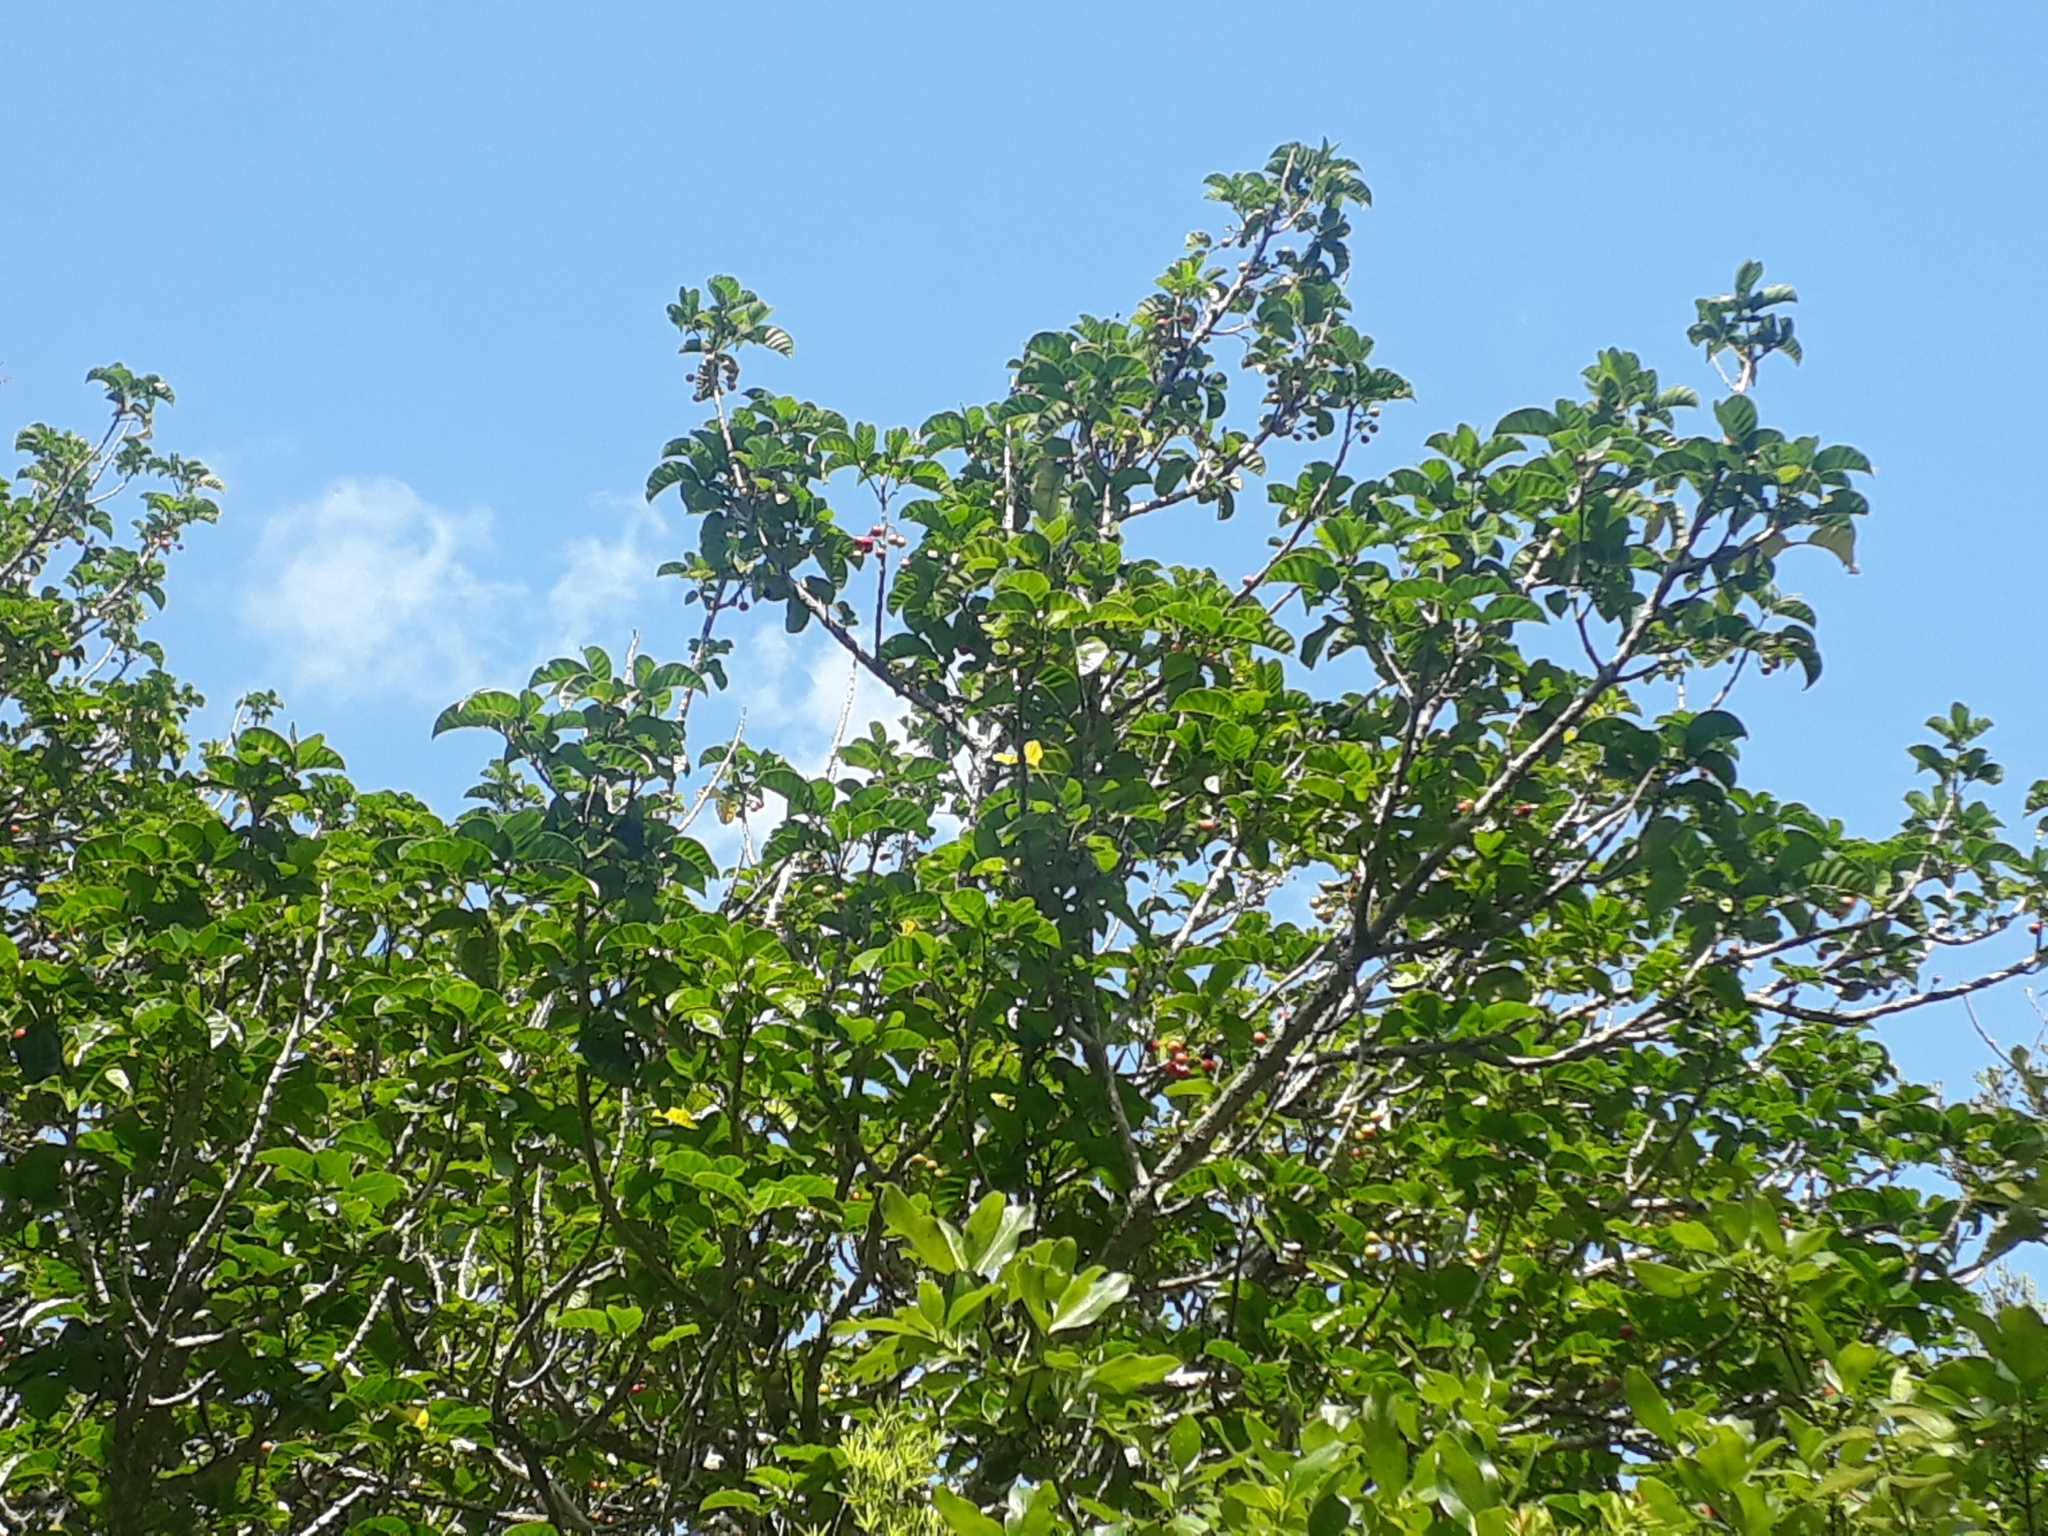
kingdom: Plantae
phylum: Tracheophyta
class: Magnoliopsida
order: Lamiales
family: Lamiaceae
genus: Vitex
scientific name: Vitex lucens
